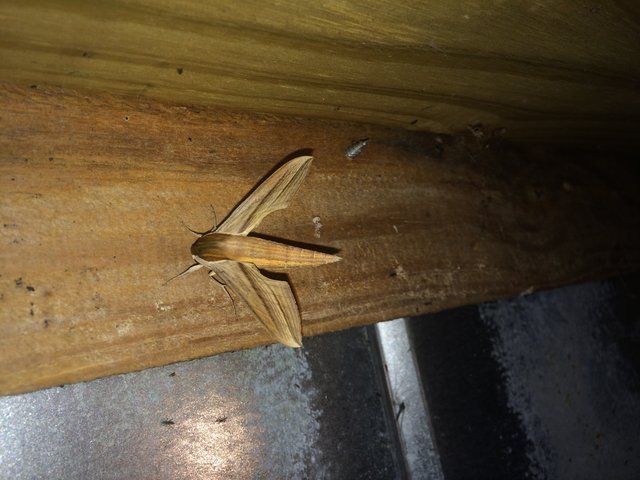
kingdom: Animalia
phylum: Arthropoda
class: Insecta
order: Lepidoptera
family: Sphingidae
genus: Xylophanes
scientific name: Xylophanes tersa
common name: Tersa sphinx
